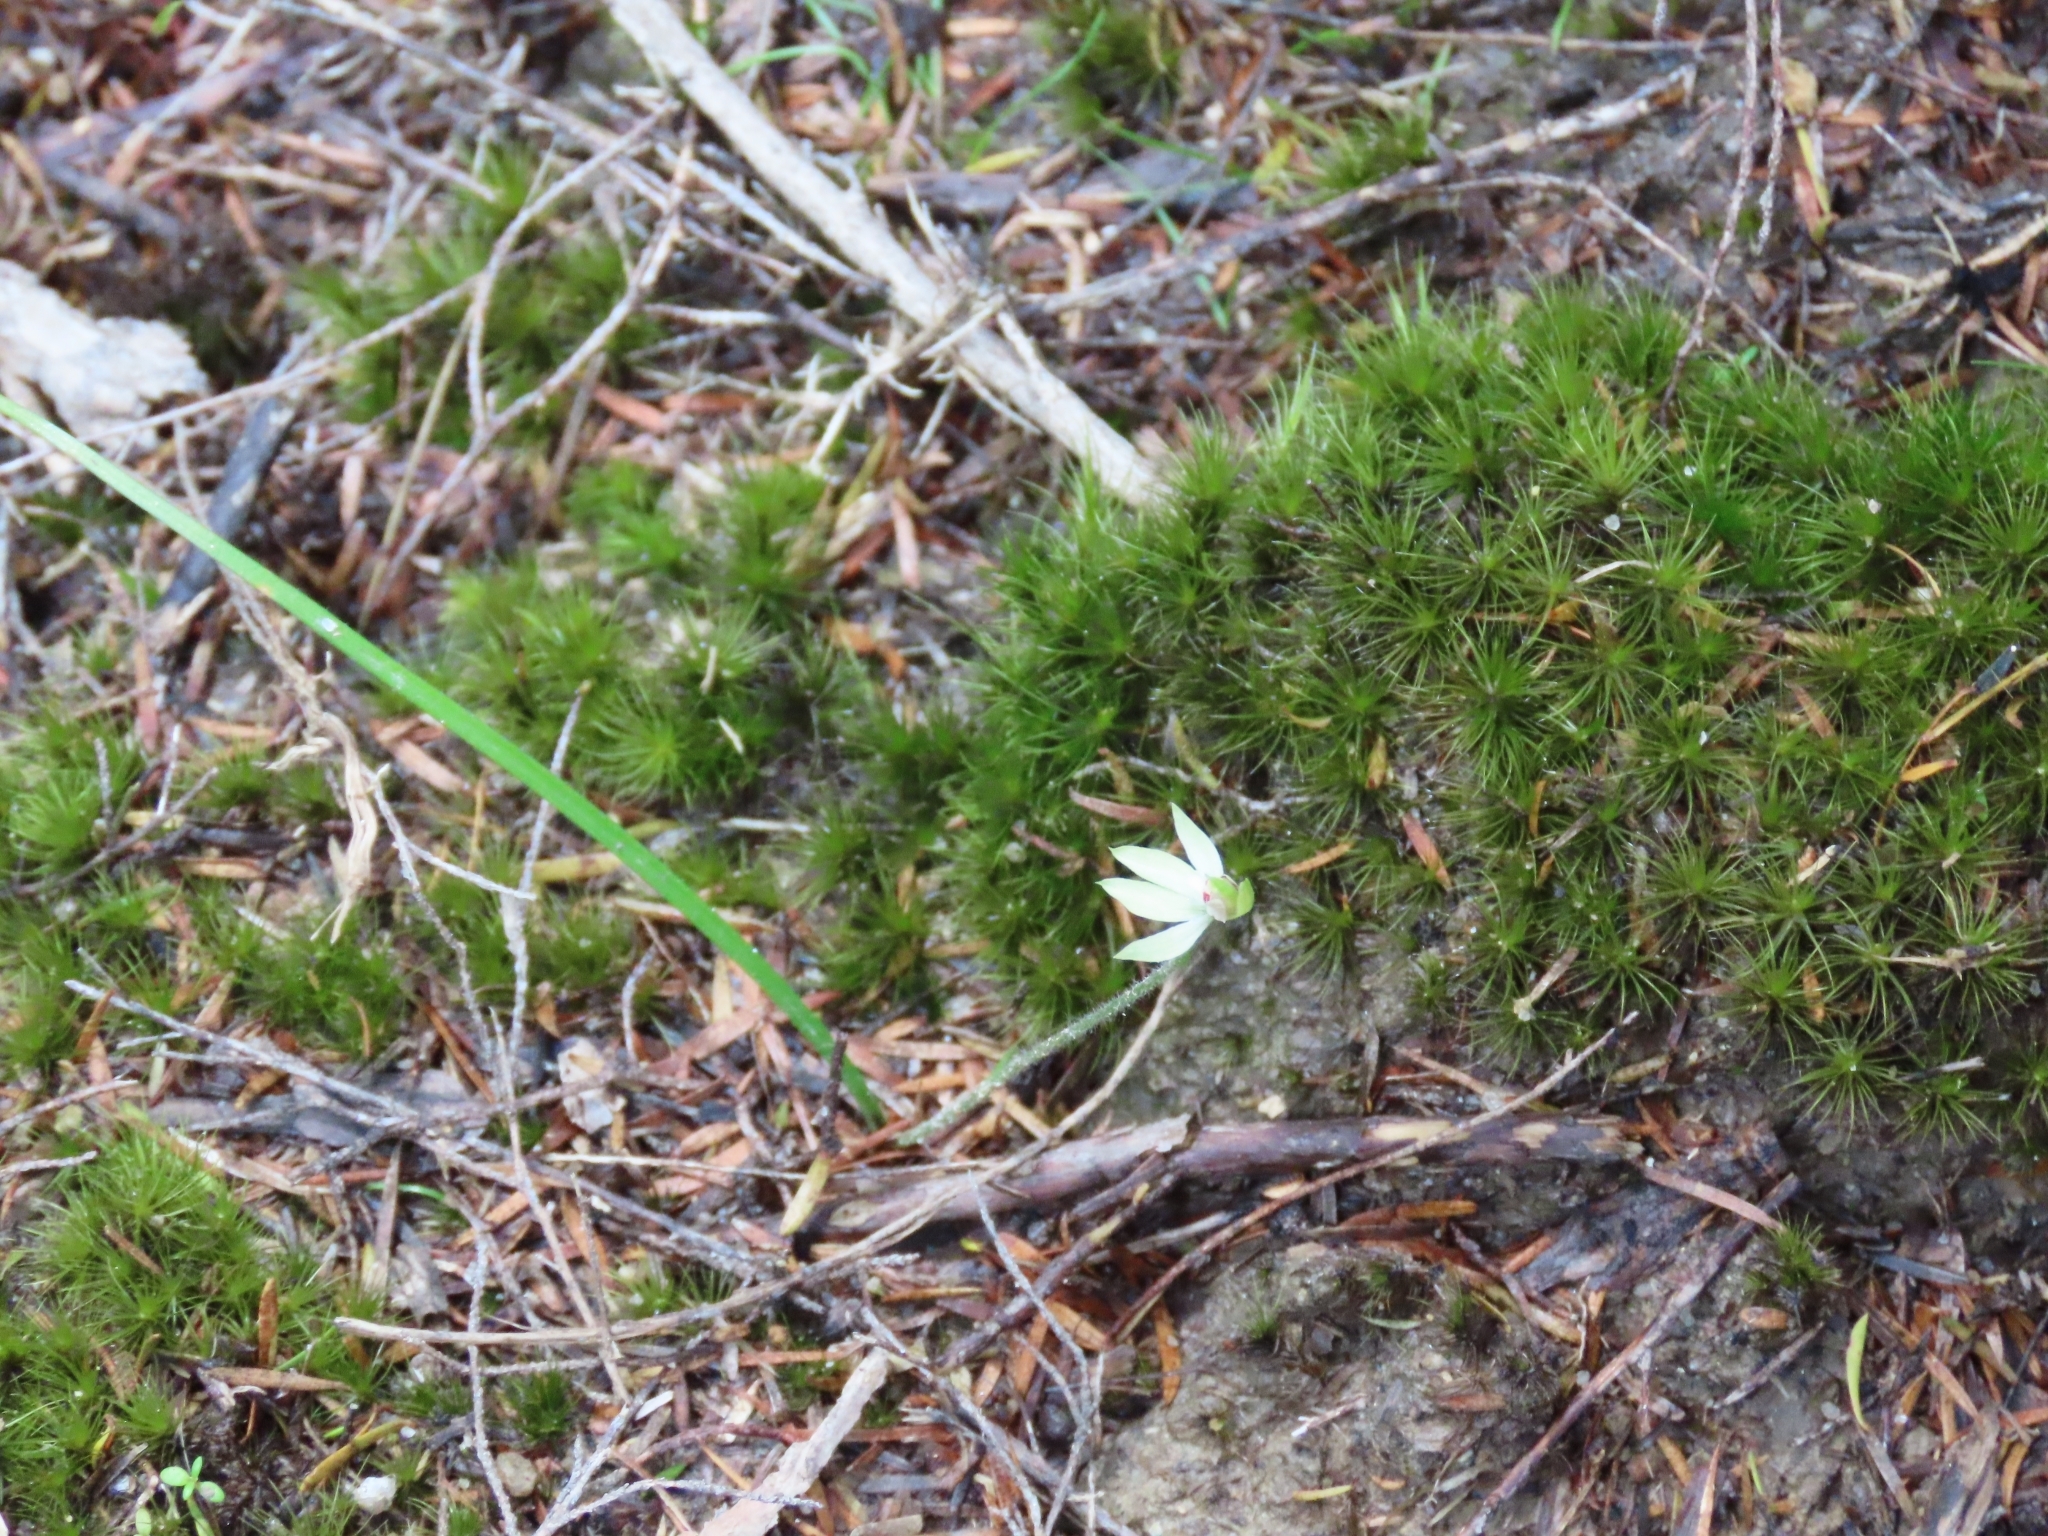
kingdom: Plantae
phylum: Tracheophyta
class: Liliopsida
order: Asparagales
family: Orchidaceae
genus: Caladenia
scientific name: Caladenia chlorostyla
